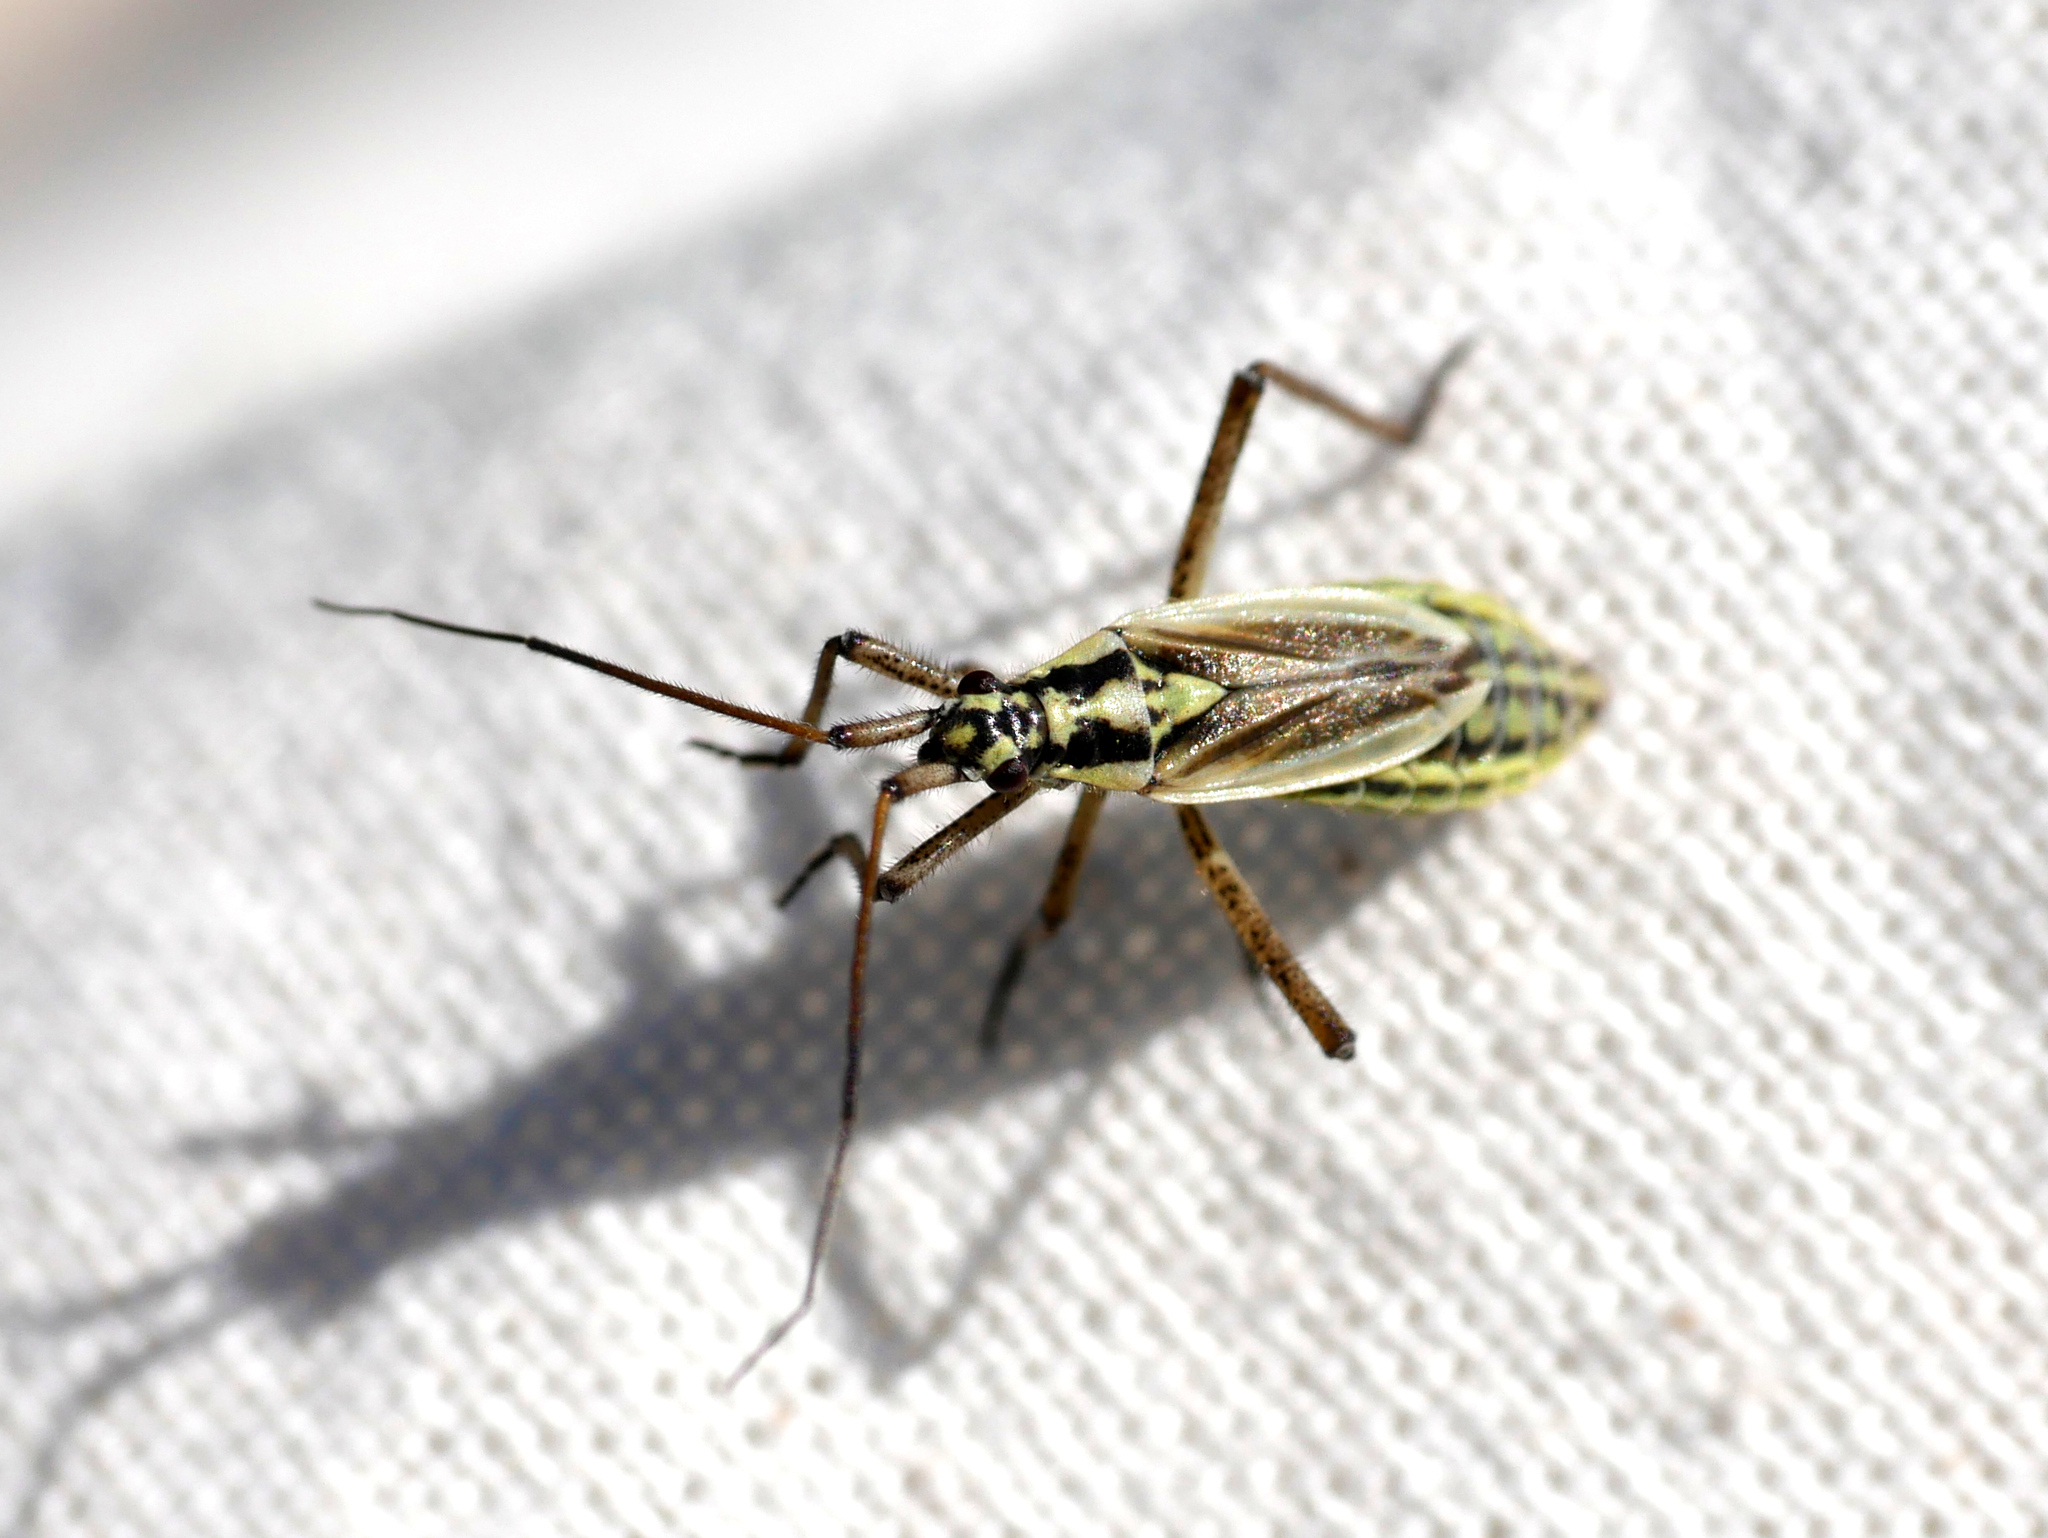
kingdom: Animalia
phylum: Arthropoda
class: Insecta
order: Hemiptera
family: Miridae
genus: Leptopterna
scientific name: Leptopterna dolabrata
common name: Meadow plant bug
